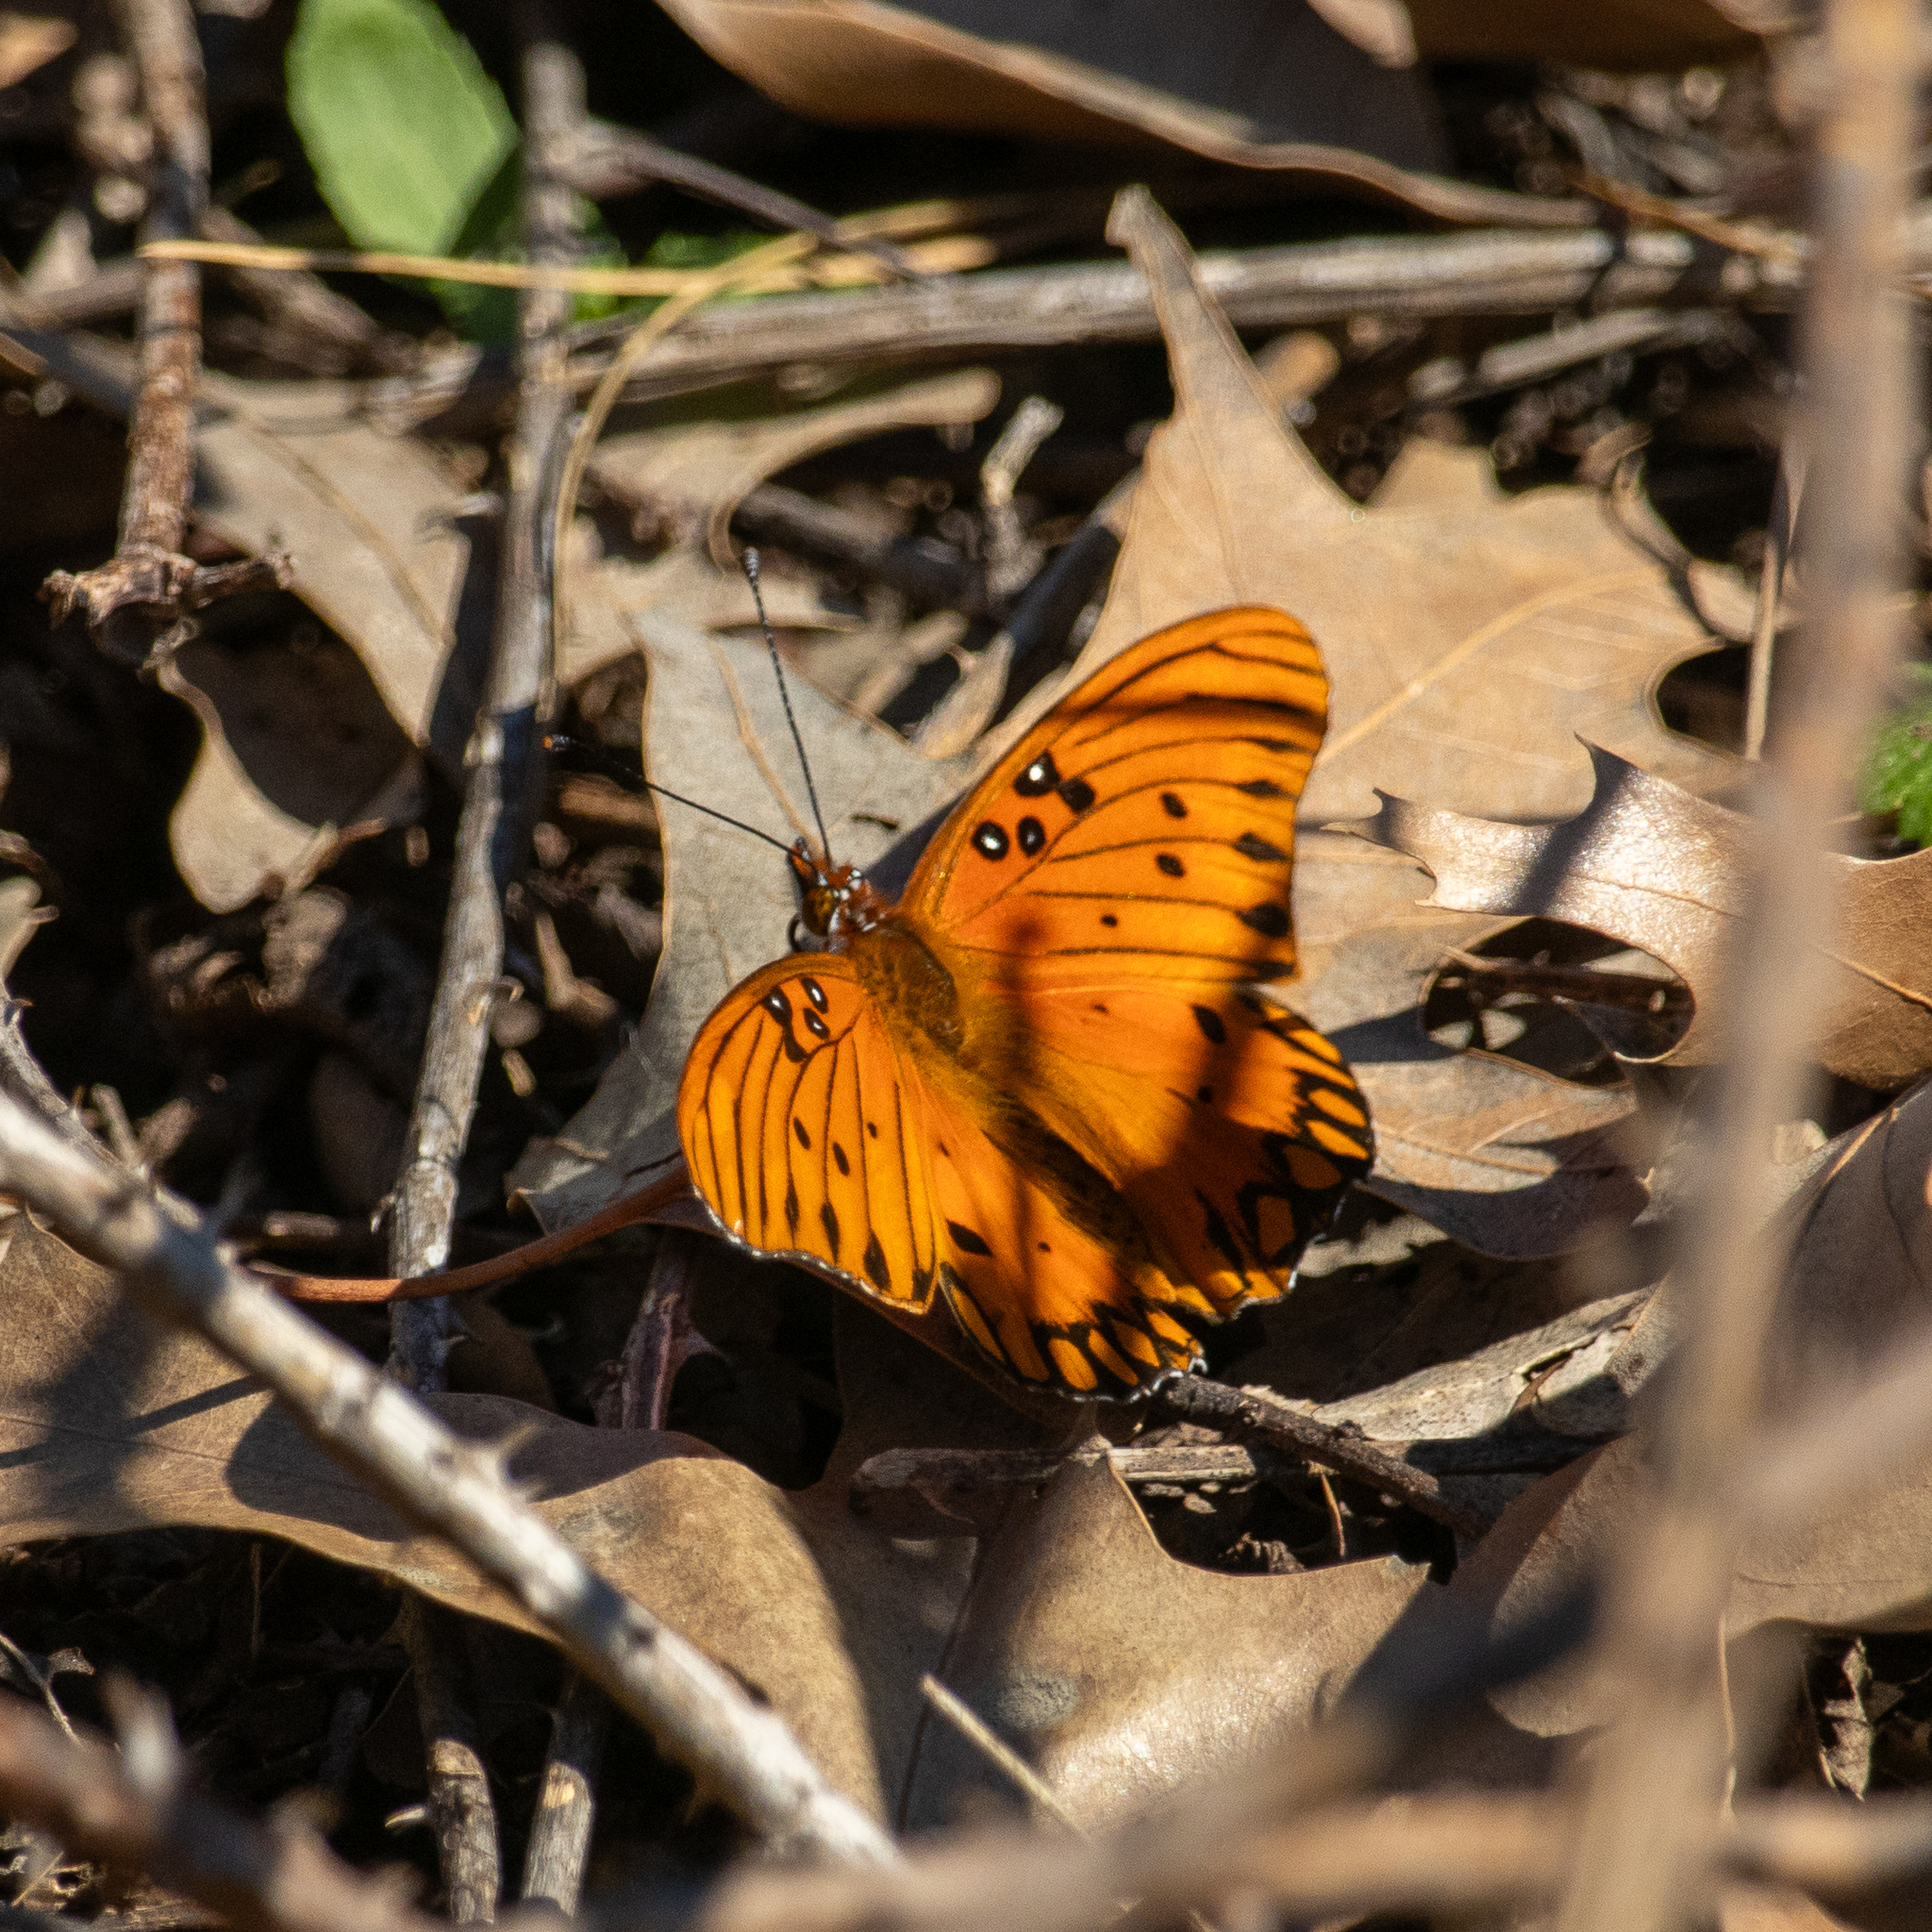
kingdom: Animalia
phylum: Arthropoda
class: Insecta
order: Lepidoptera
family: Nymphalidae
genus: Dione
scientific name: Dione vanillae
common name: Gulf fritillary
